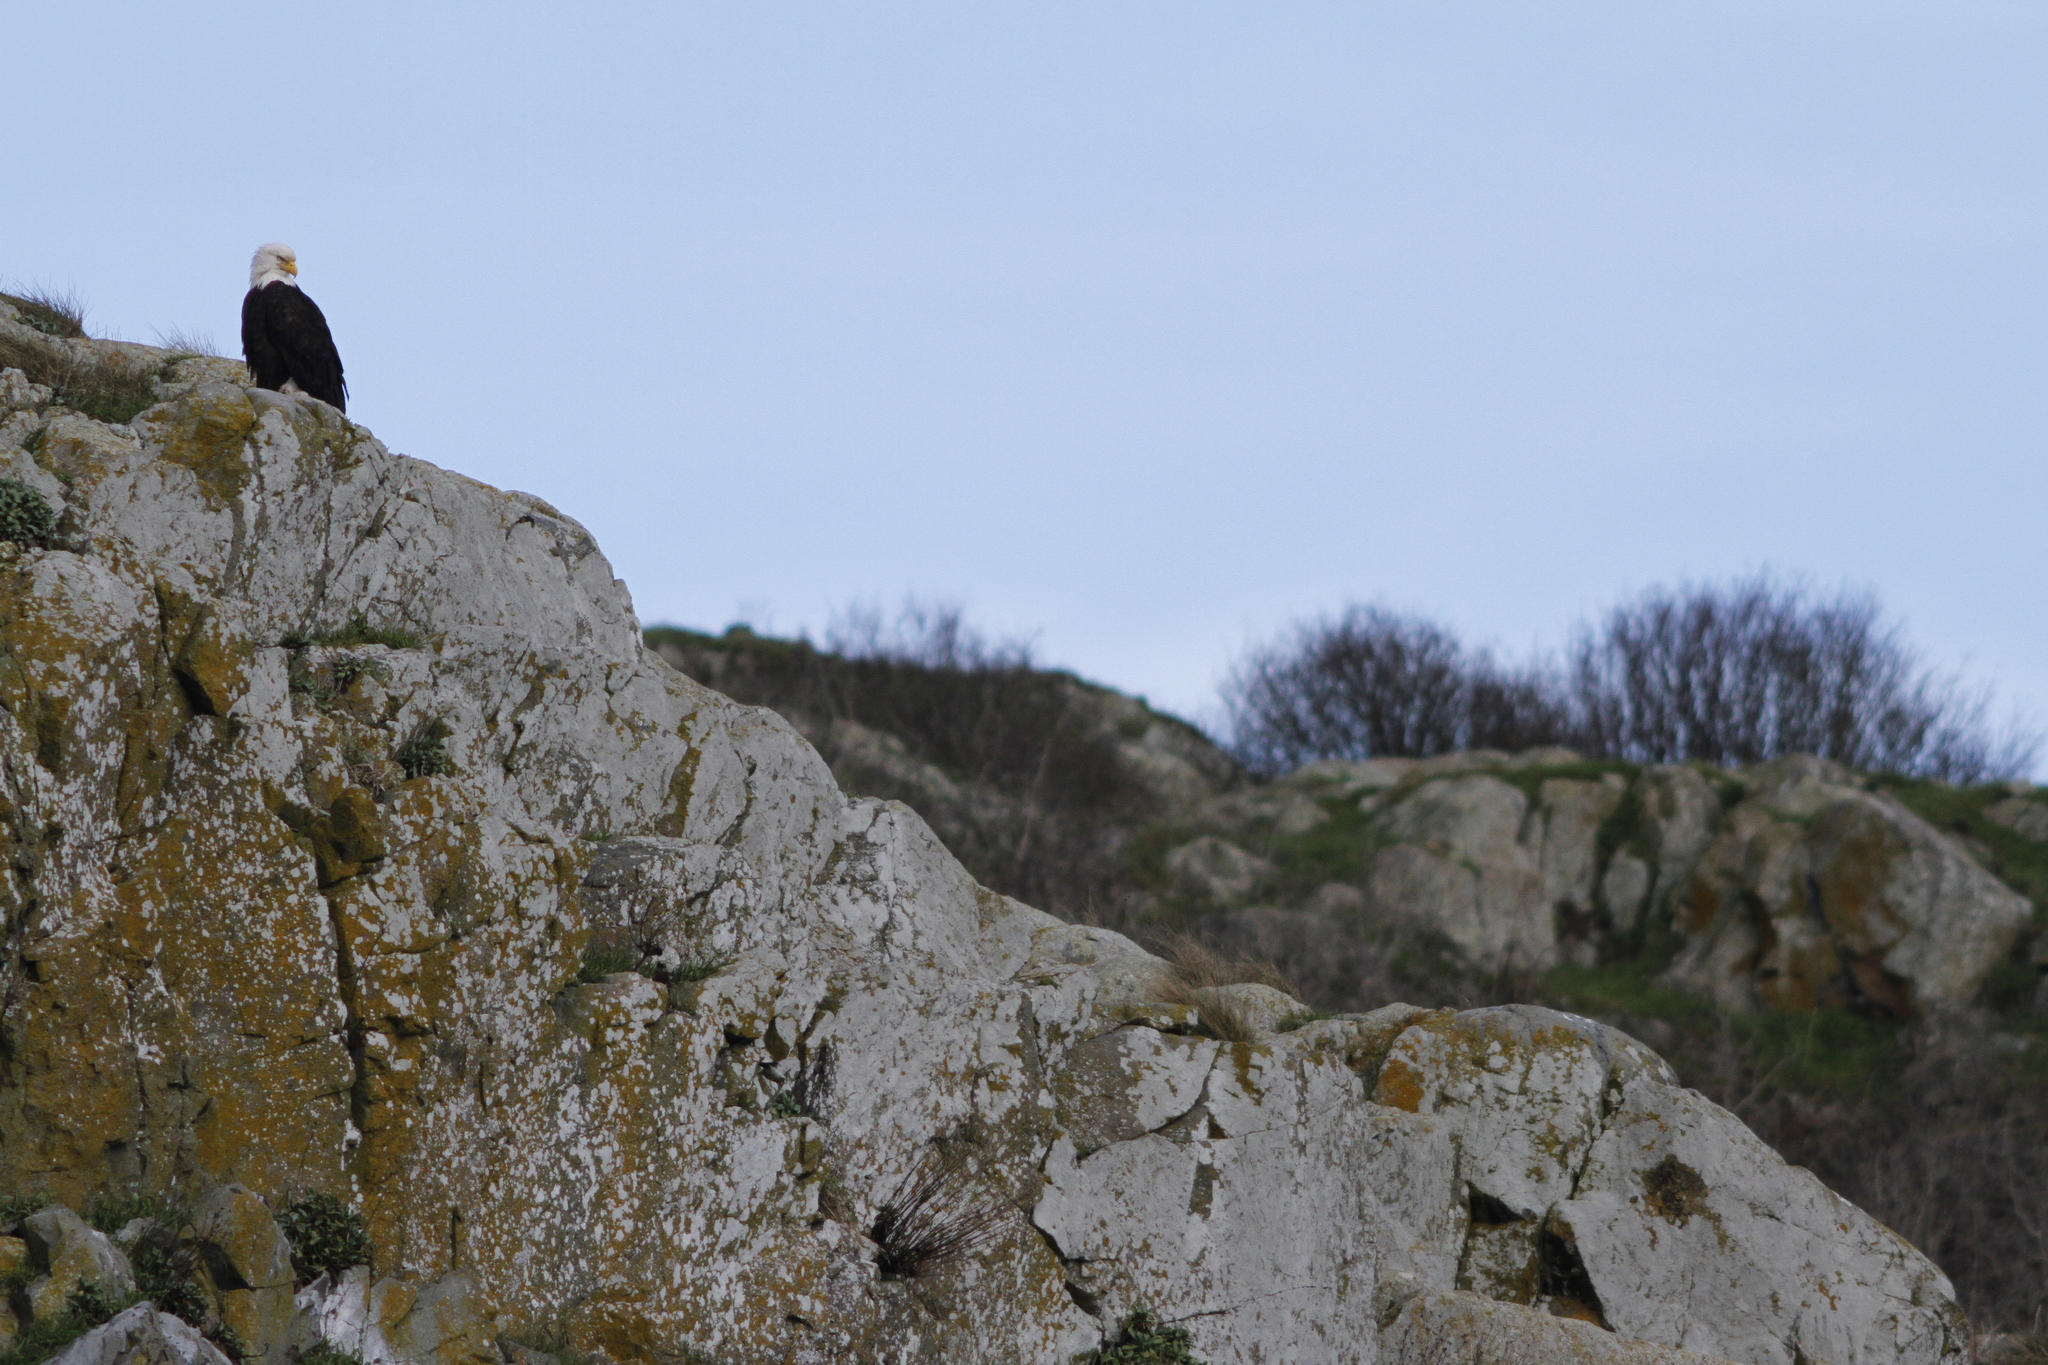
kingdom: Animalia
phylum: Chordata
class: Aves
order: Accipitriformes
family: Accipitridae
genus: Haliaeetus
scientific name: Haliaeetus leucocephalus
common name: Bald eagle
